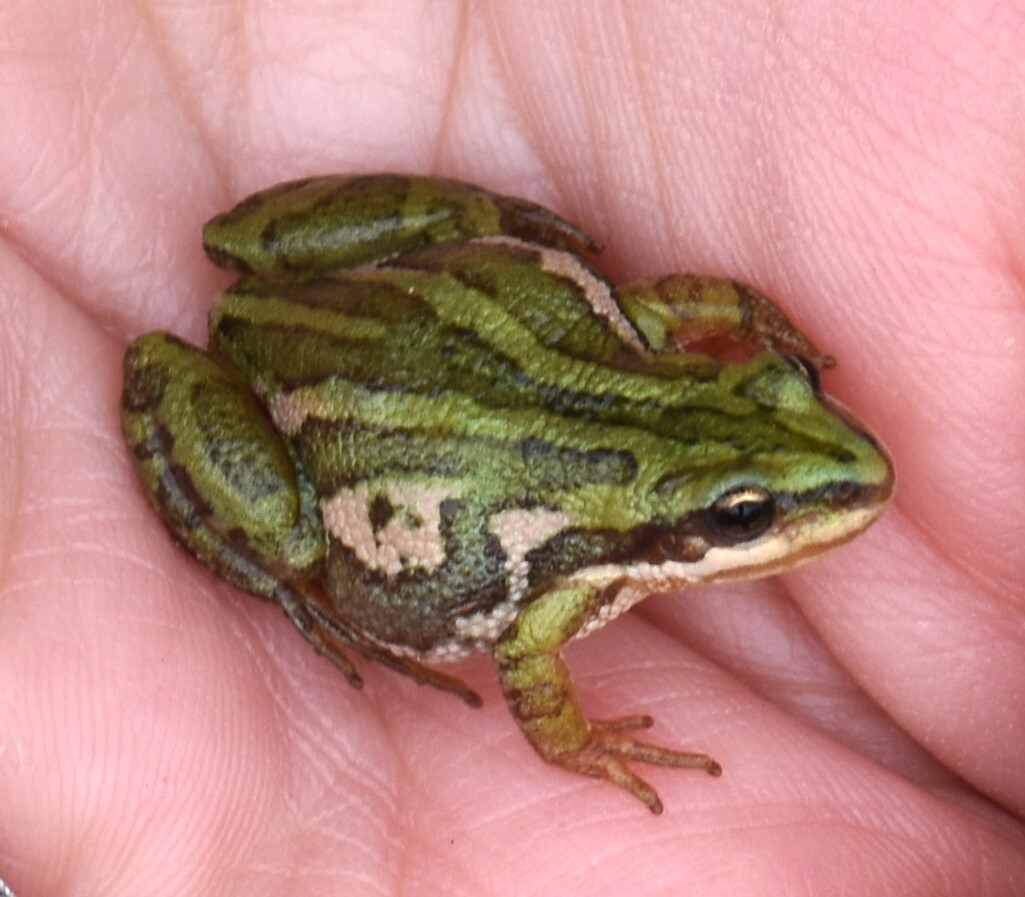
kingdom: Animalia
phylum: Chordata
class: Amphibia
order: Anura
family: Hylidae
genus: Pseudacris
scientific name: Pseudacris maculata
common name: Boreal chorus frog
